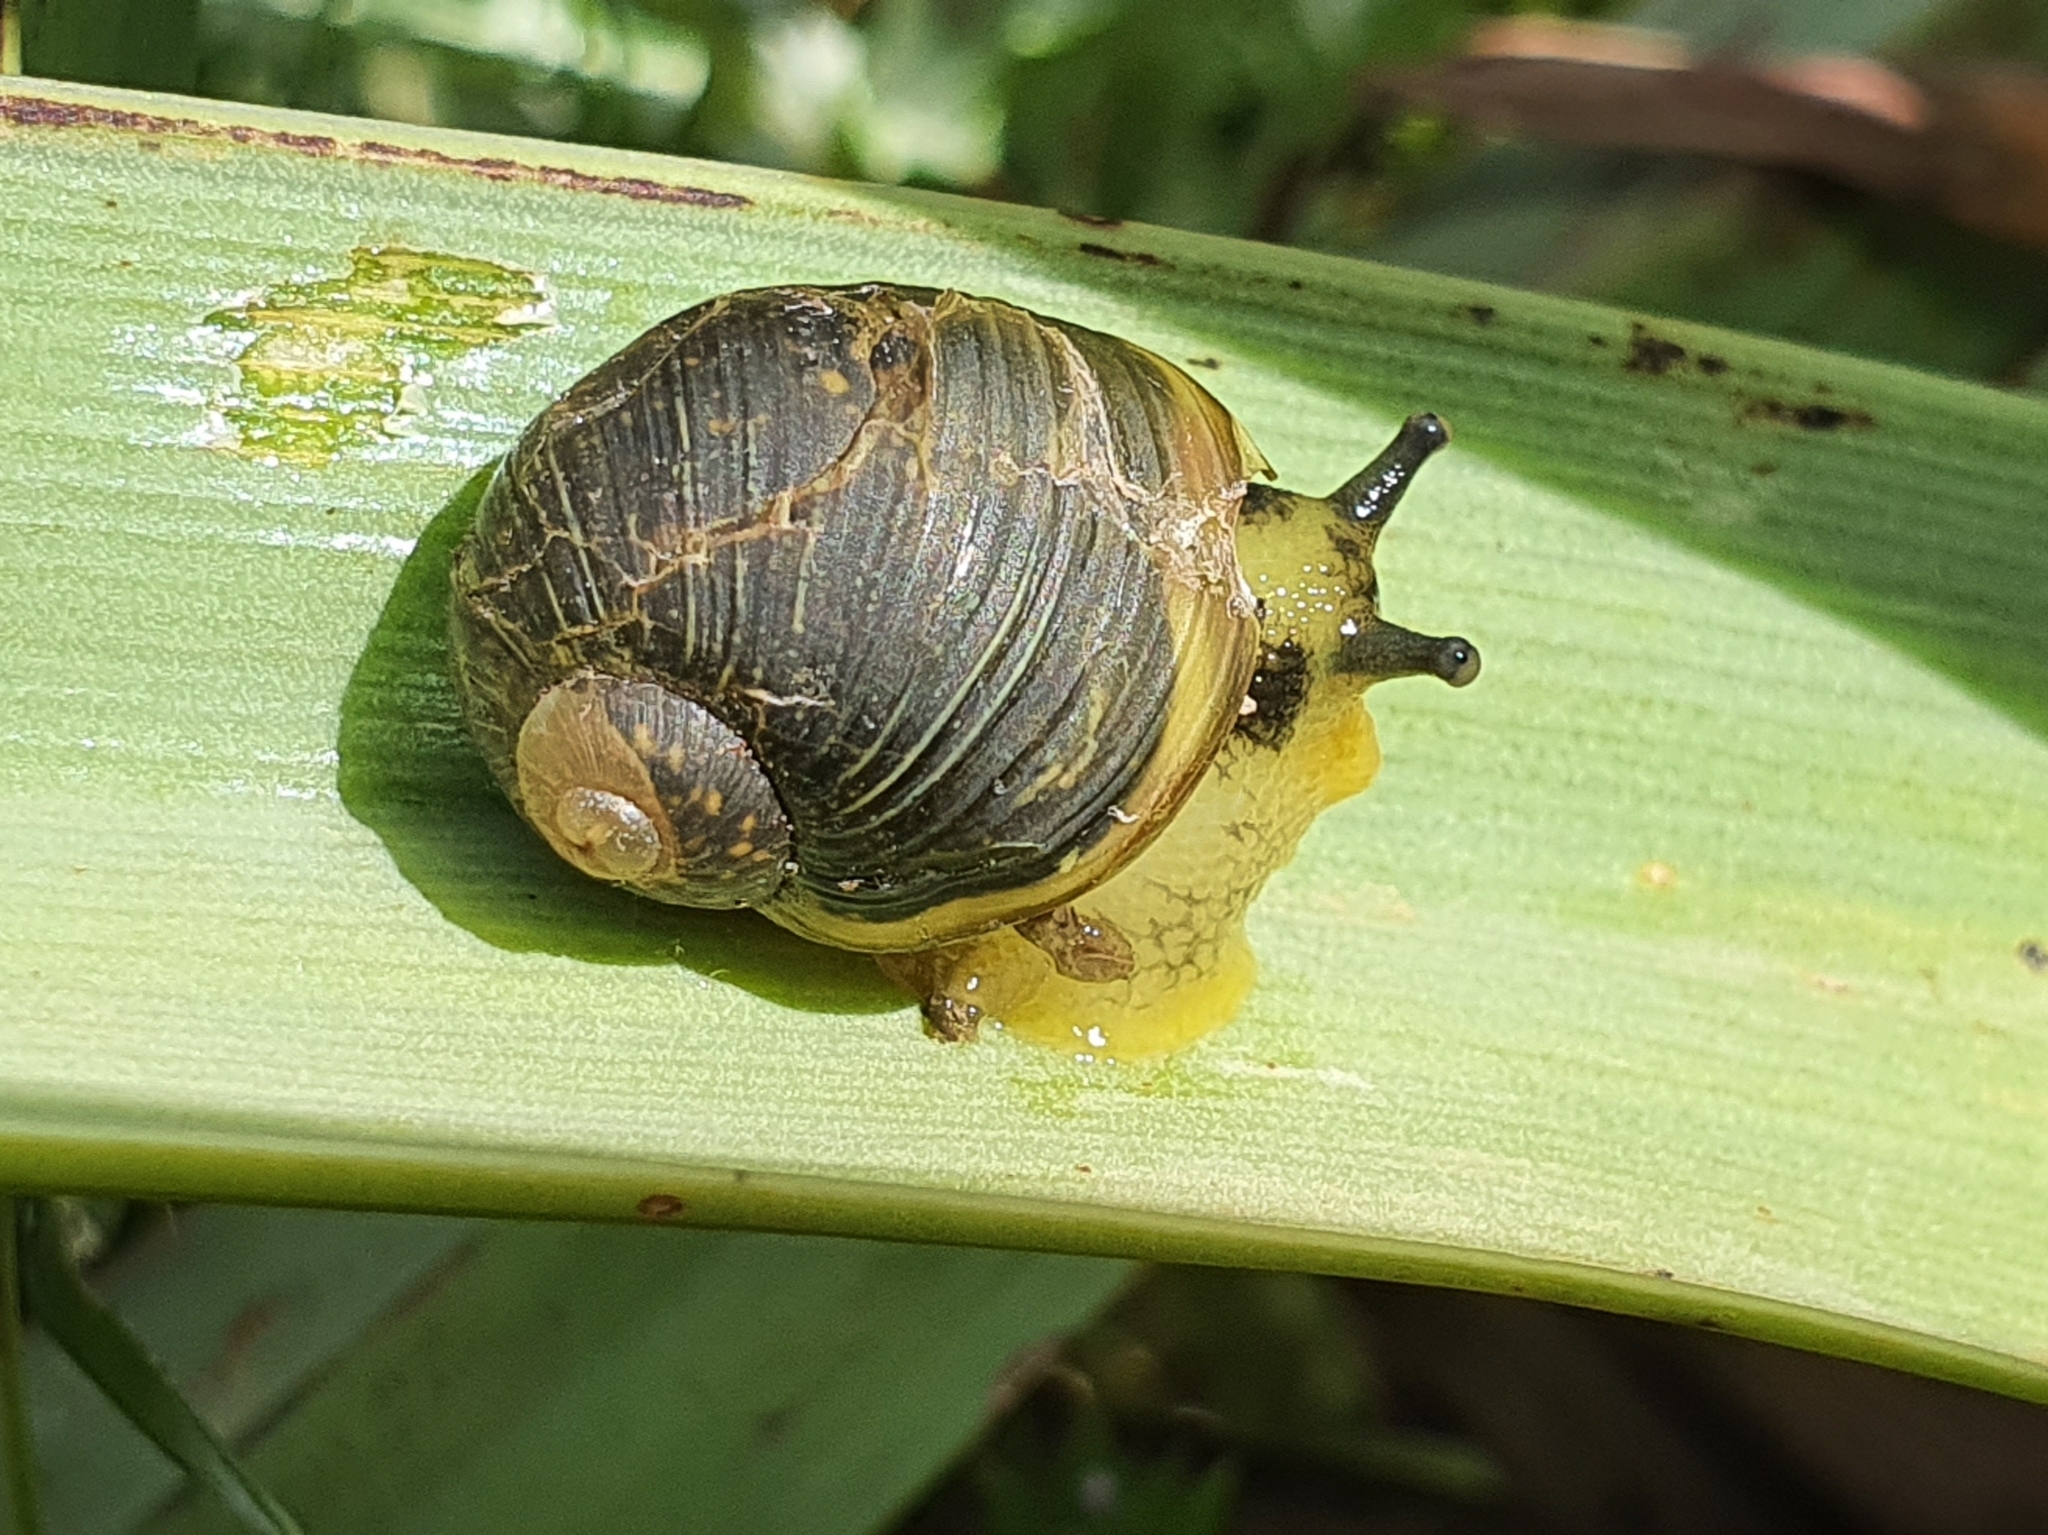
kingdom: Animalia
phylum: Mollusca
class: Gastropoda
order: Stylommatophora
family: Helicidae
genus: Cantareus
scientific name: Cantareus apertus
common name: Green gardensnail
